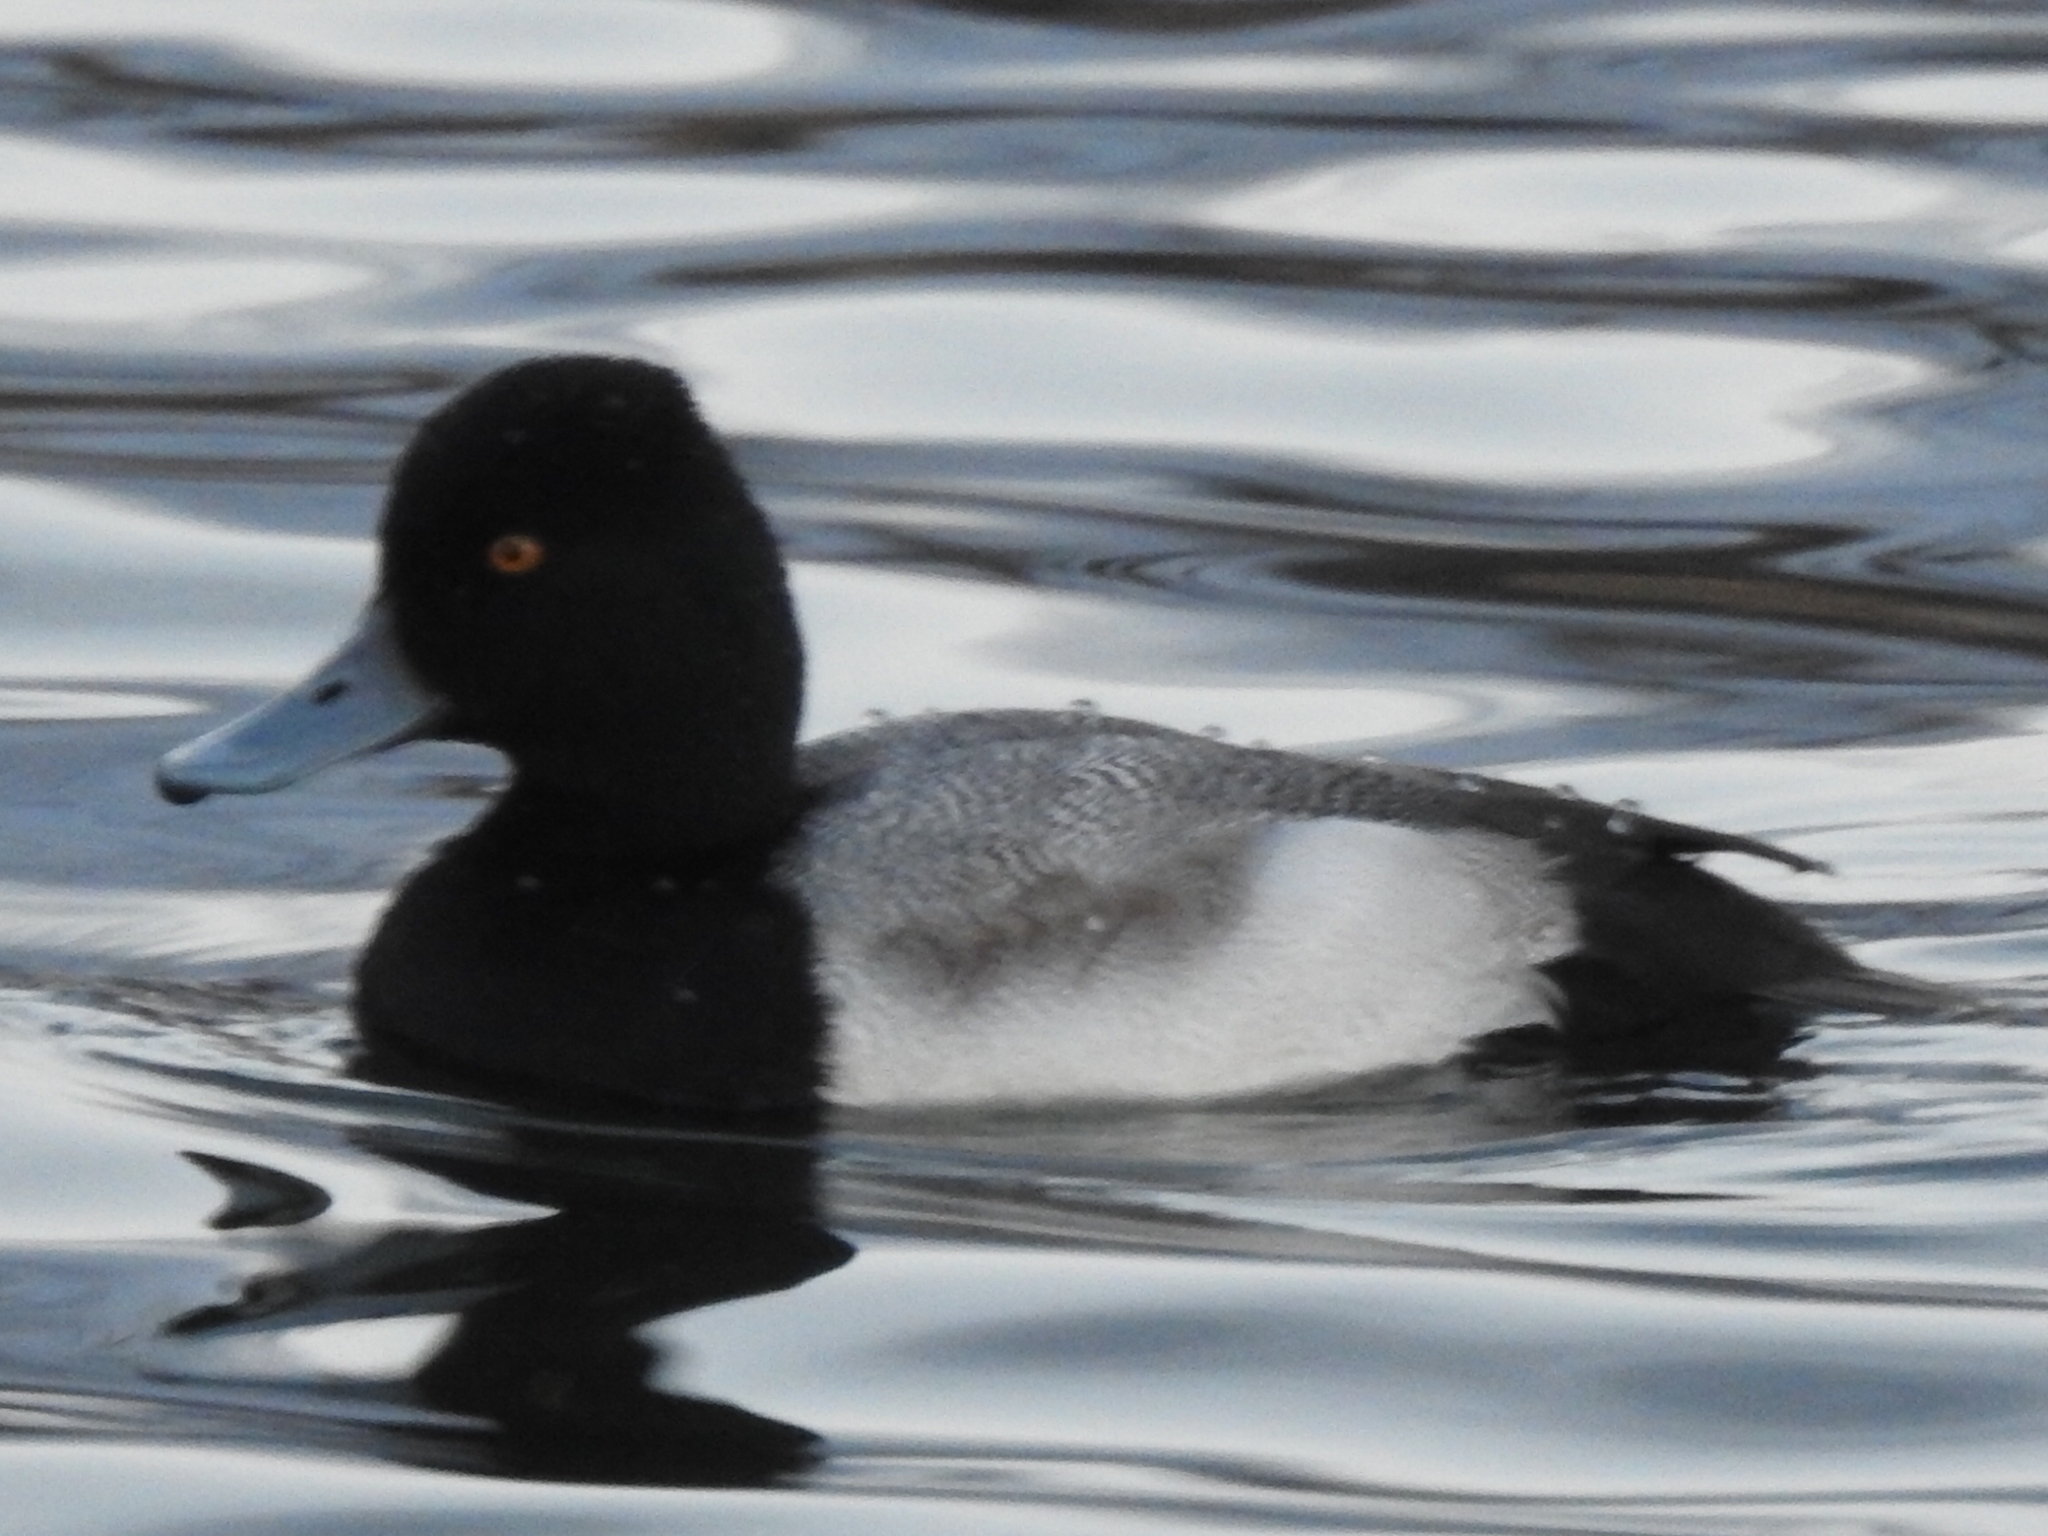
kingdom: Animalia
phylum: Chordata
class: Aves
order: Anseriformes
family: Anatidae
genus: Aythya
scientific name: Aythya affinis
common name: Lesser scaup
